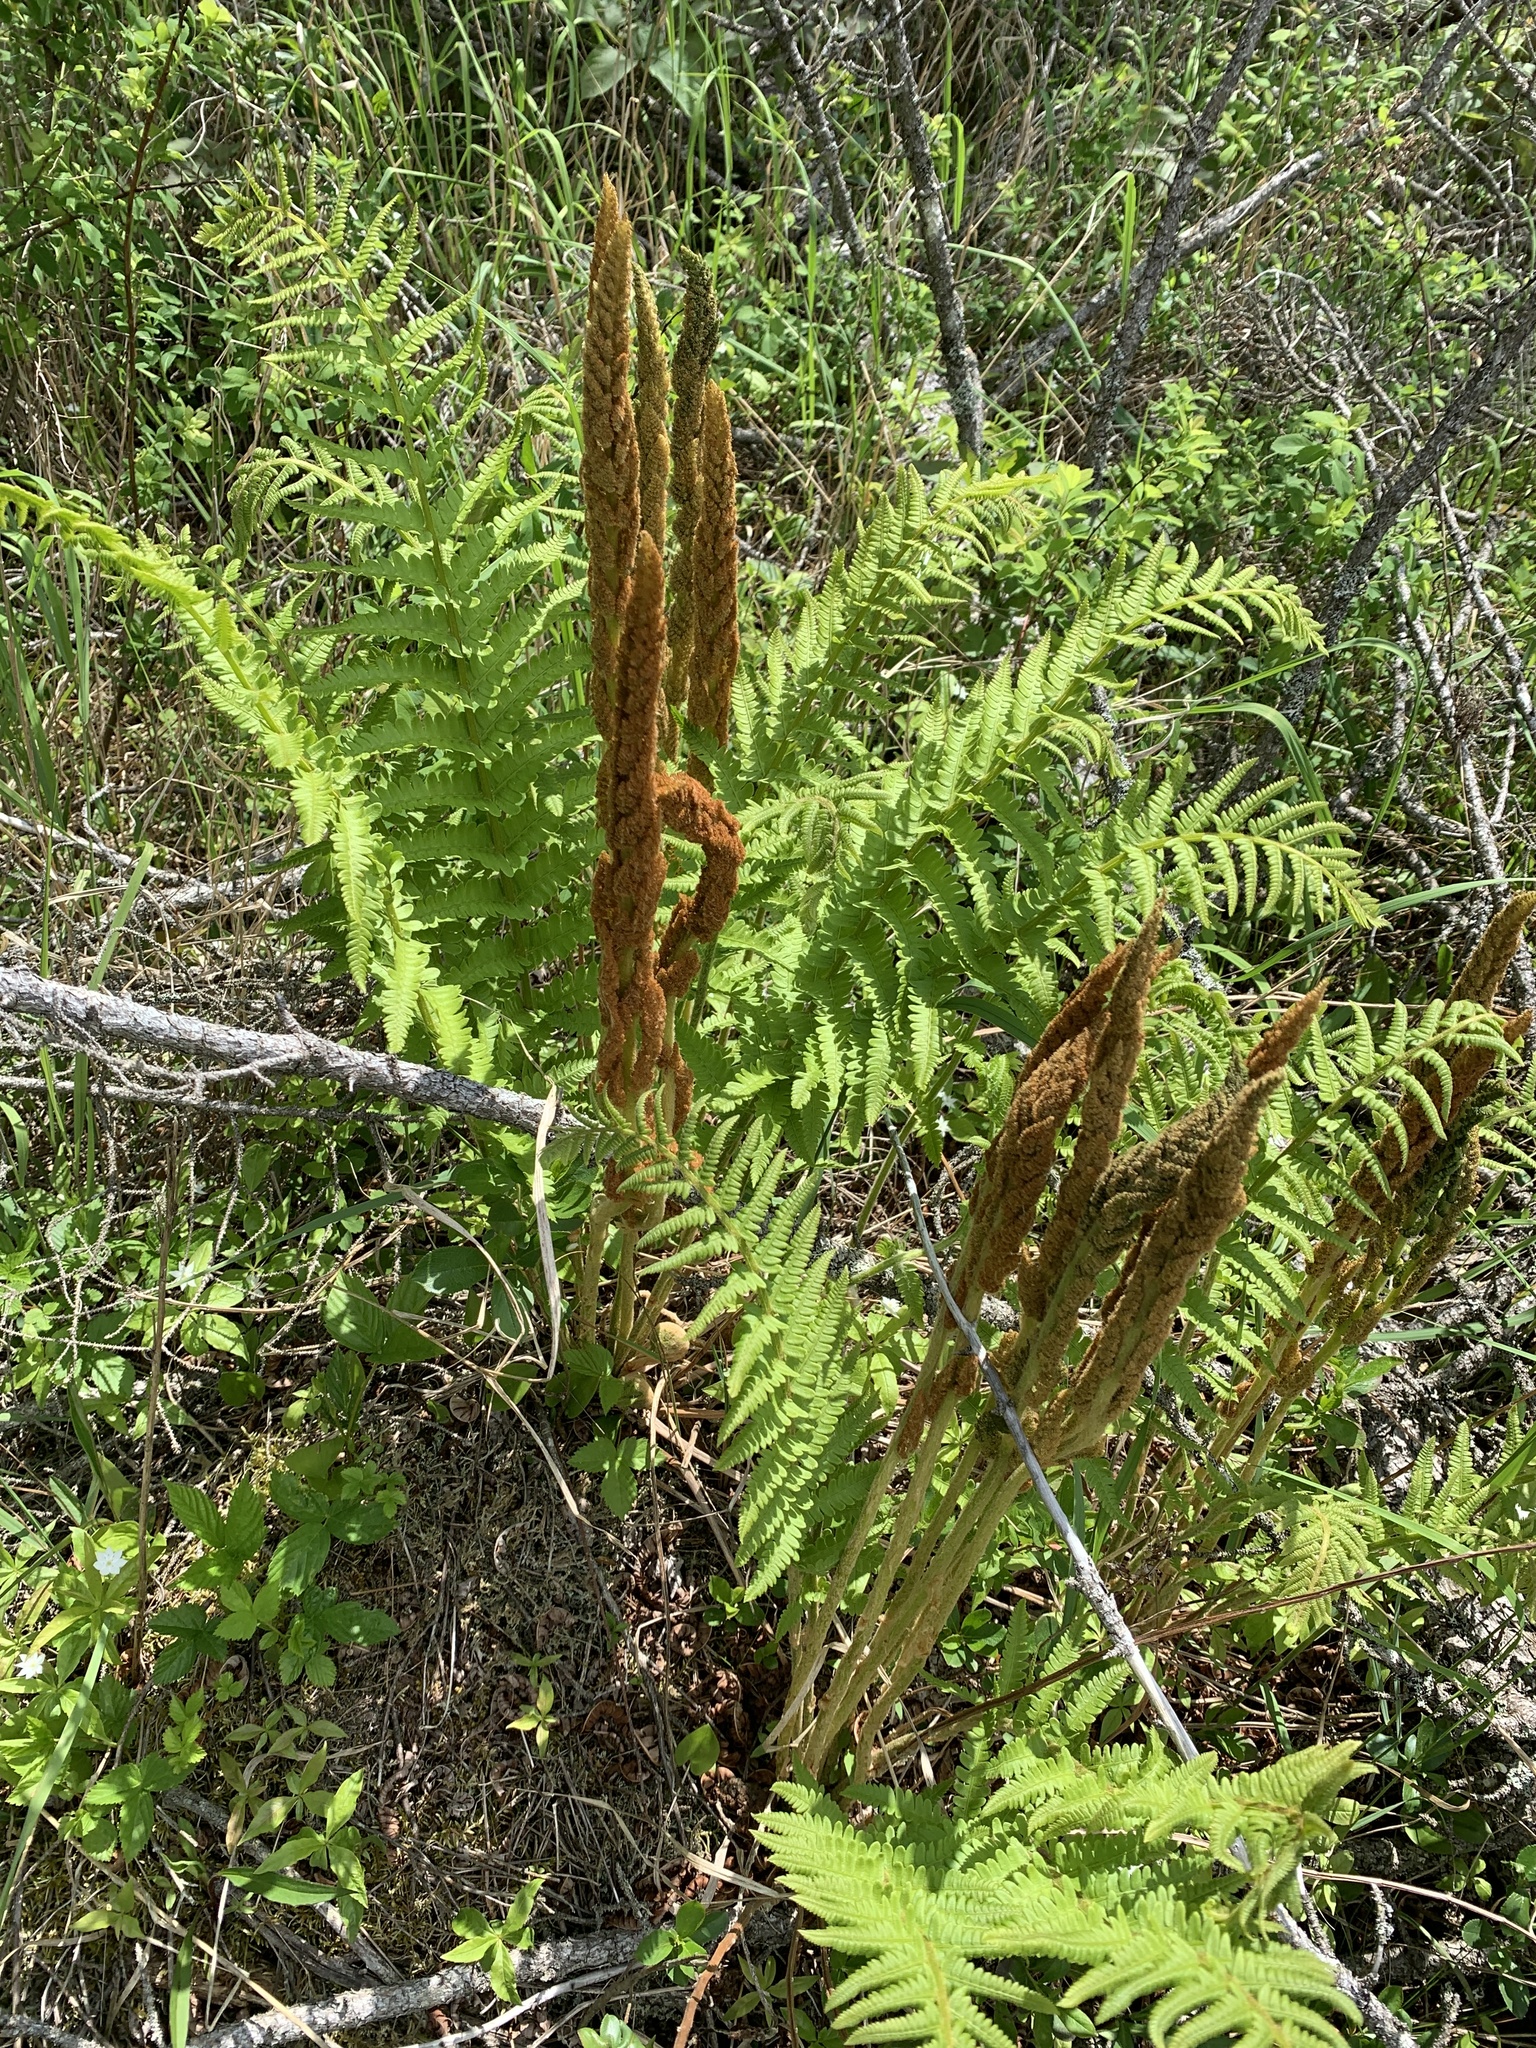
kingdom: Plantae
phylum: Tracheophyta
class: Polypodiopsida
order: Osmundales
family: Osmundaceae
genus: Osmundastrum
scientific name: Osmundastrum cinnamomeum
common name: Cinnamon fern
